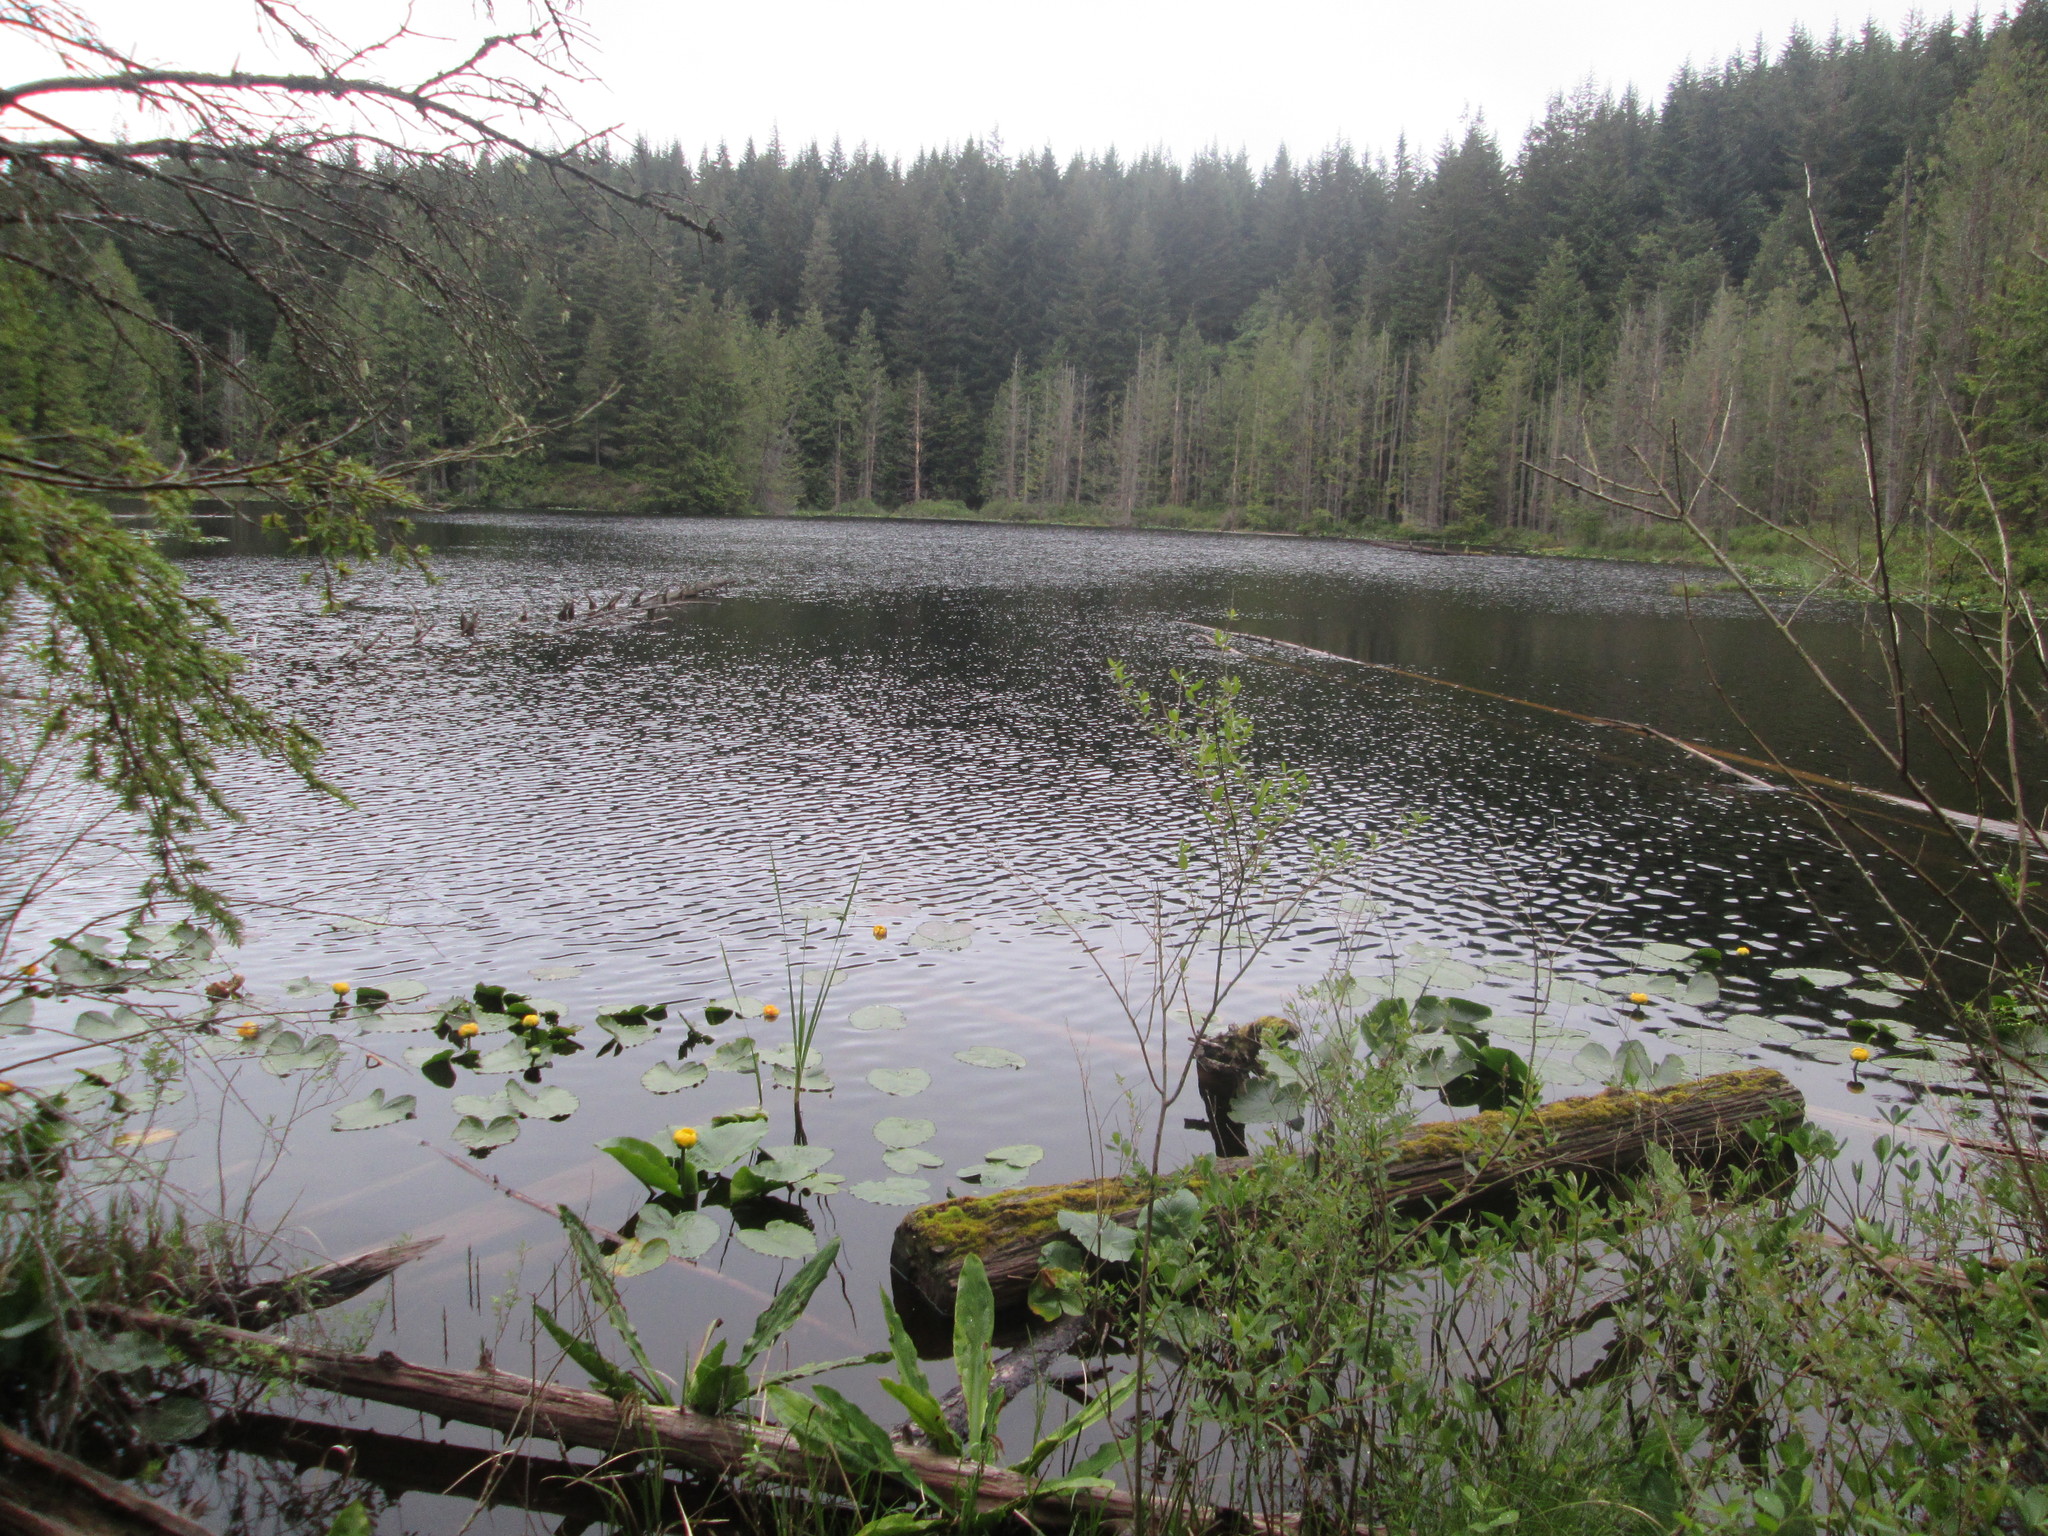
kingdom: Plantae
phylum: Tracheophyta
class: Magnoliopsida
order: Nymphaeales
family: Nymphaeaceae
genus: Nuphar
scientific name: Nuphar polysepala
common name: Rocky mountain cow-lily
